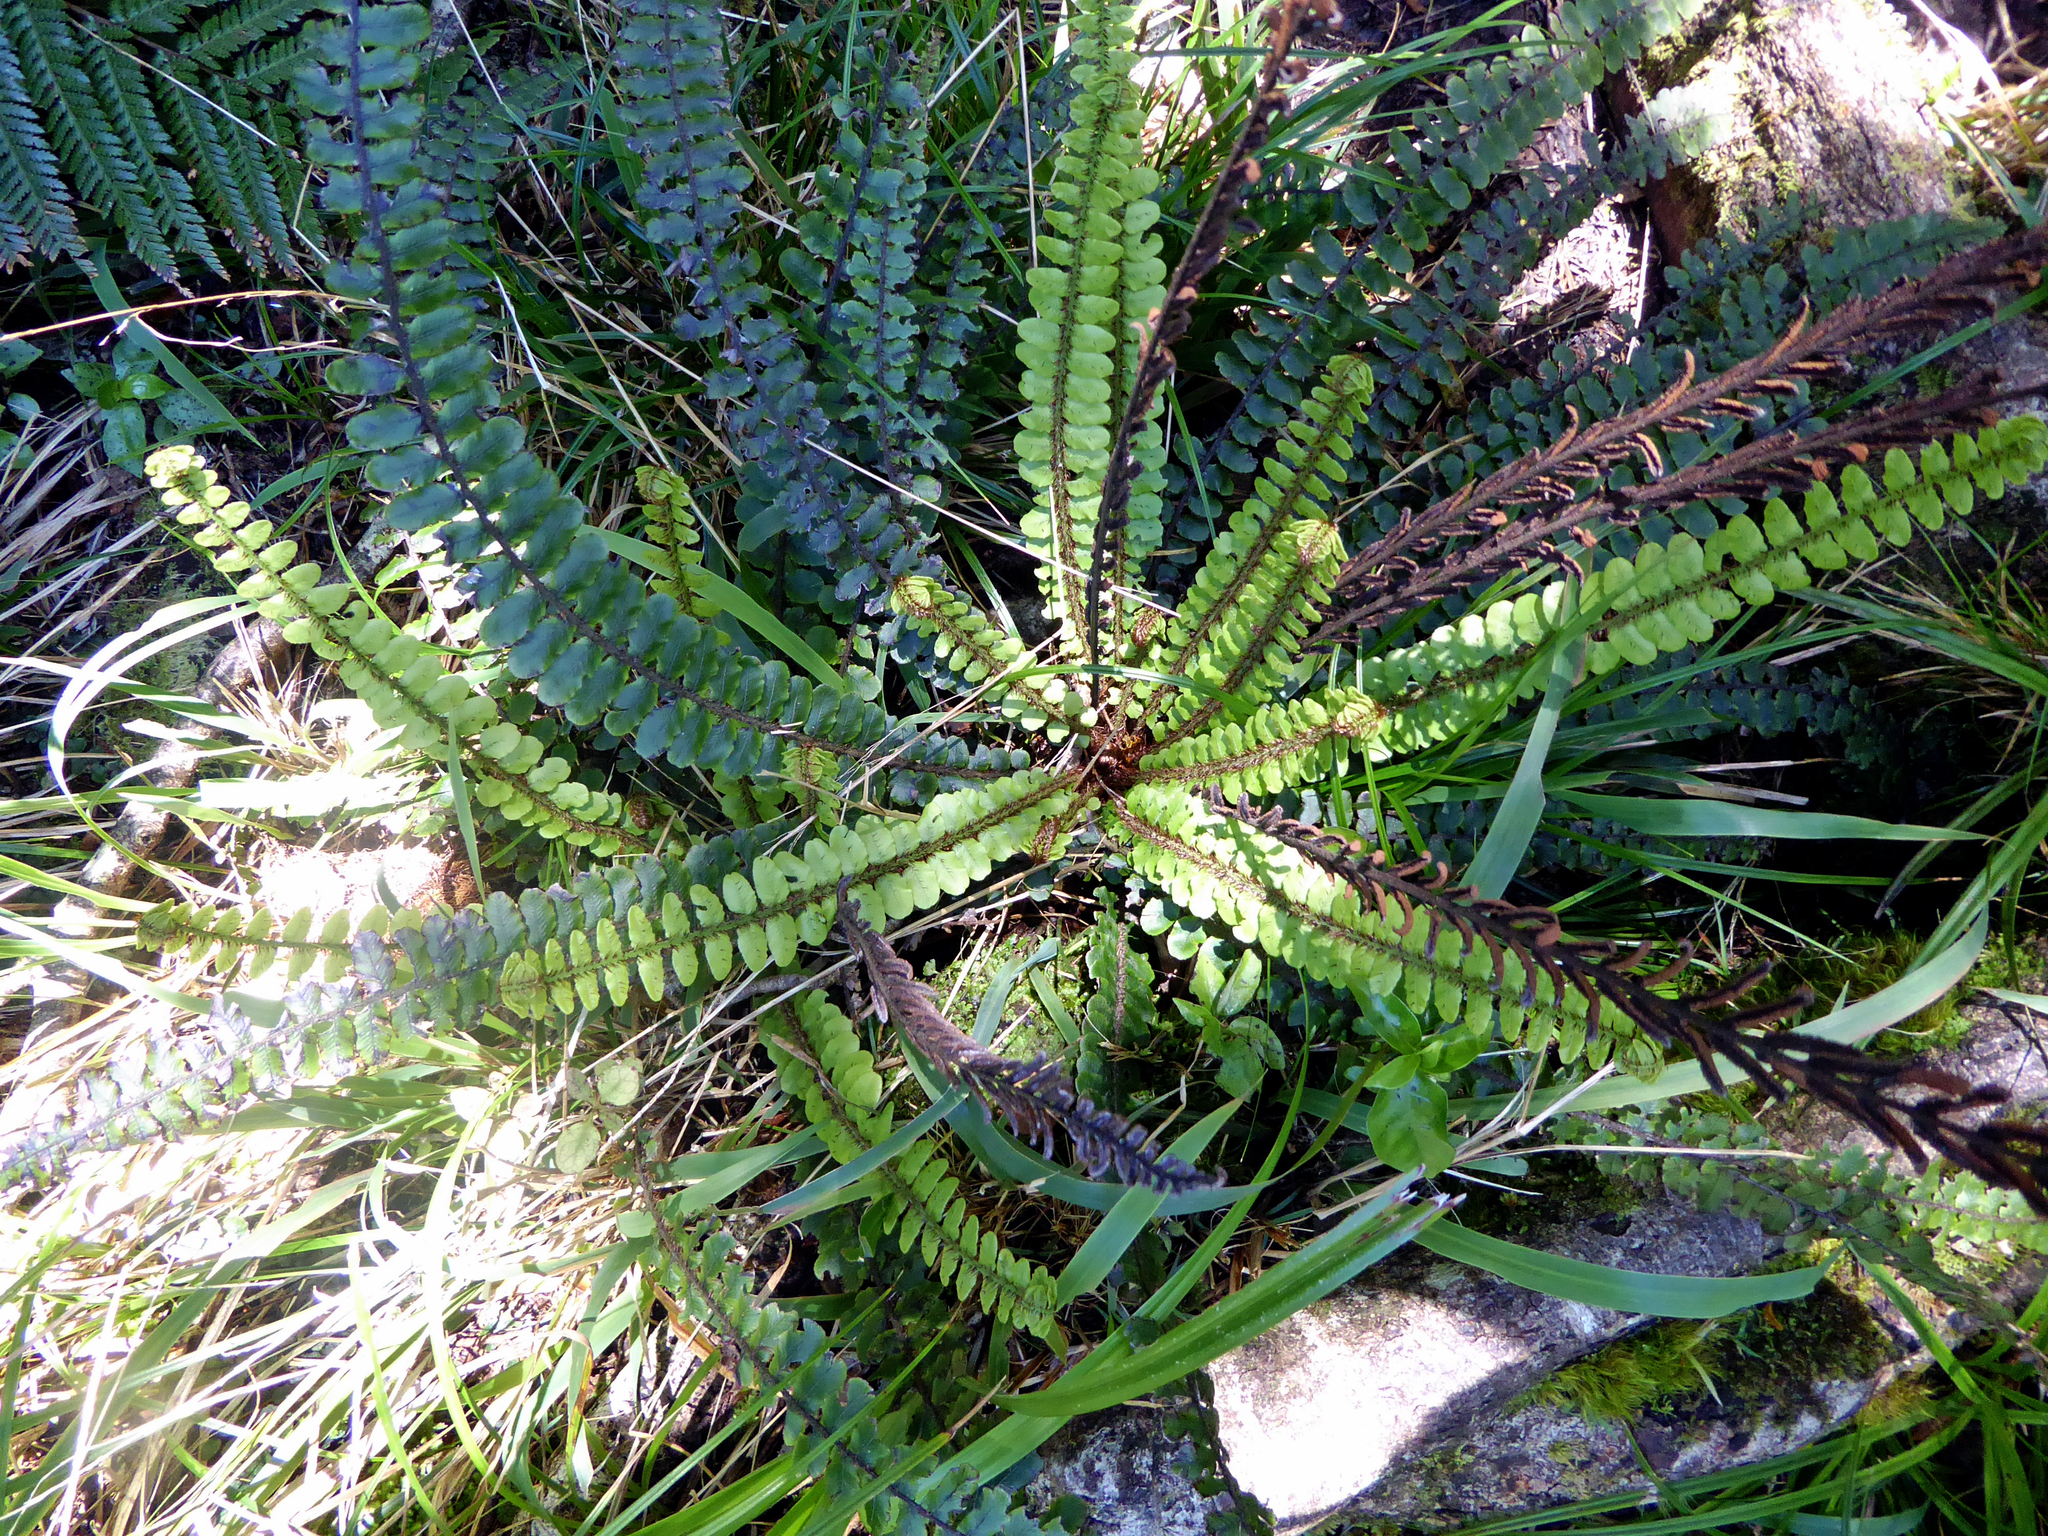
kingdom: Plantae
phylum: Tracheophyta
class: Polypodiopsida
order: Polypodiales
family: Blechnaceae
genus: Cranfillia
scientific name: Cranfillia fluviatilis
